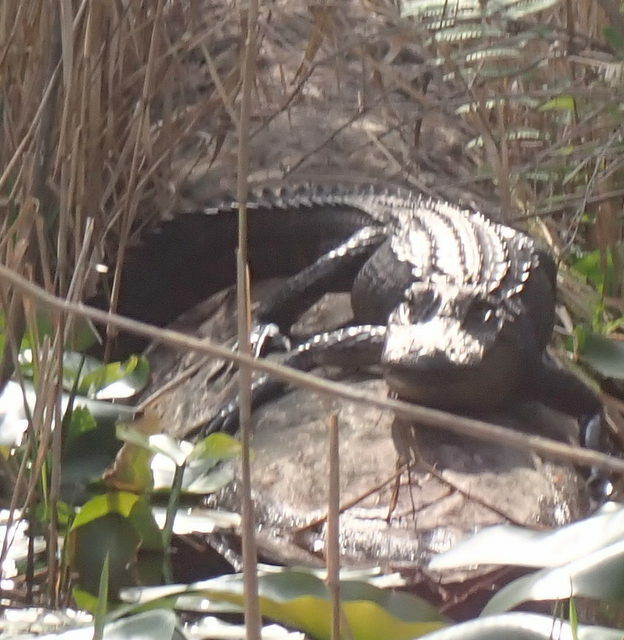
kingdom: Animalia
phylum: Chordata
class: Crocodylia
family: Alligatoridae
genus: Alligator
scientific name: Alligator mississippiensis
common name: American alligator
